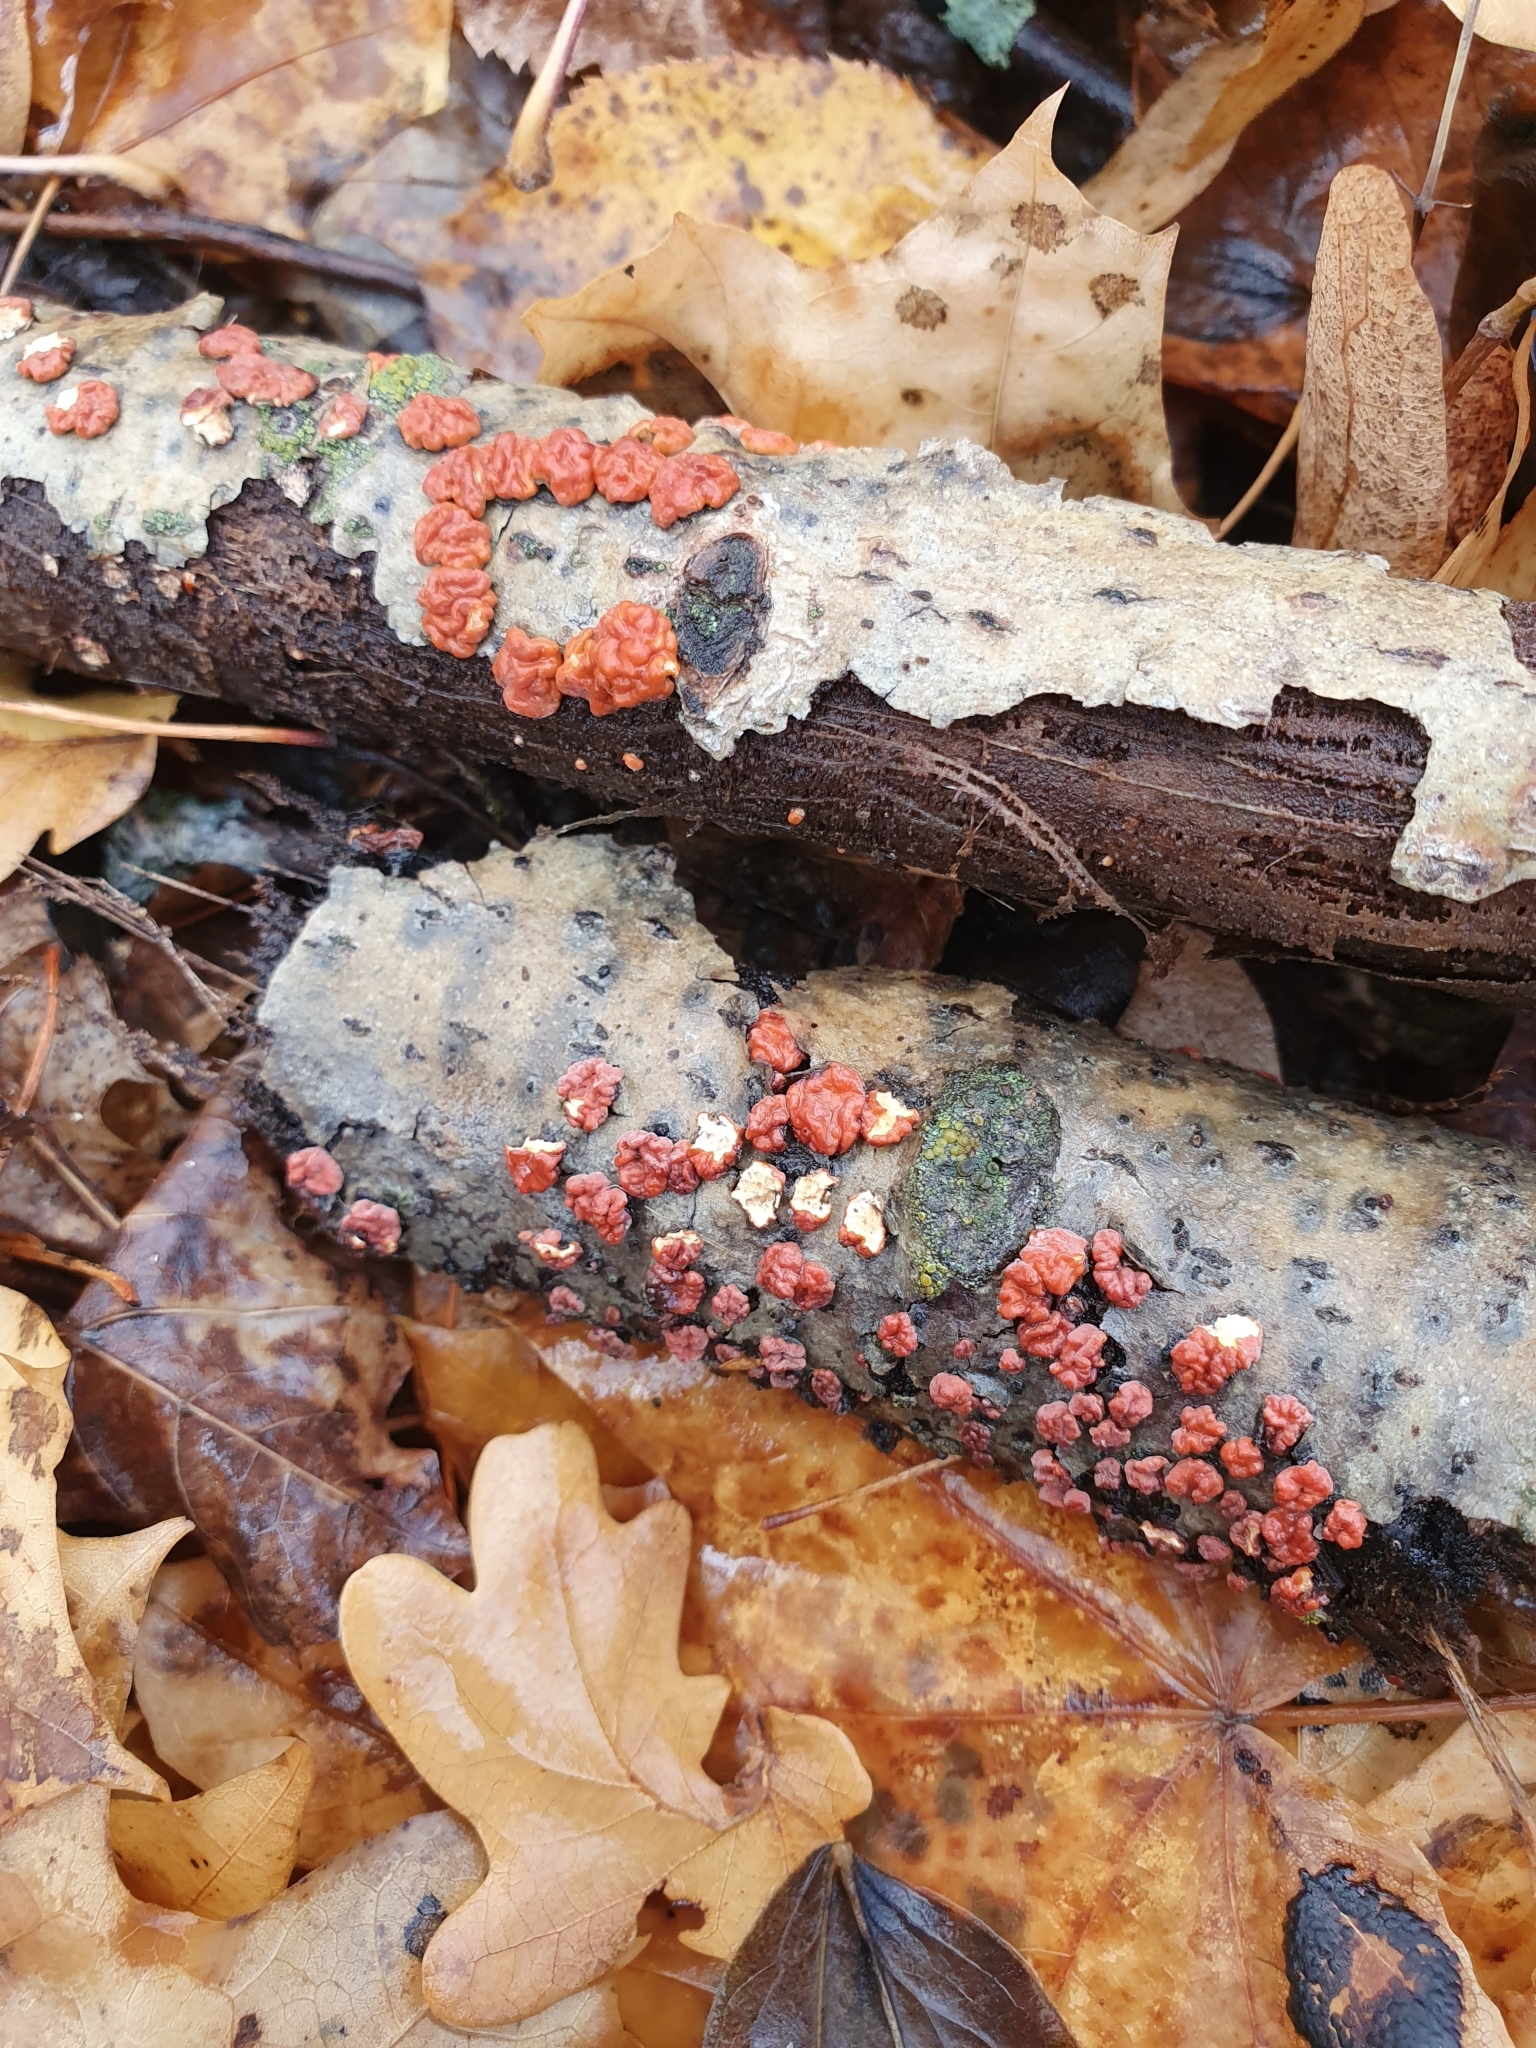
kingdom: Fungi
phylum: Basidiomycota
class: Agaricomycetes
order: Russulales
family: Peniophoraceae
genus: Peniophora
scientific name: Peniophora rufa
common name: Red tree brain fungus
